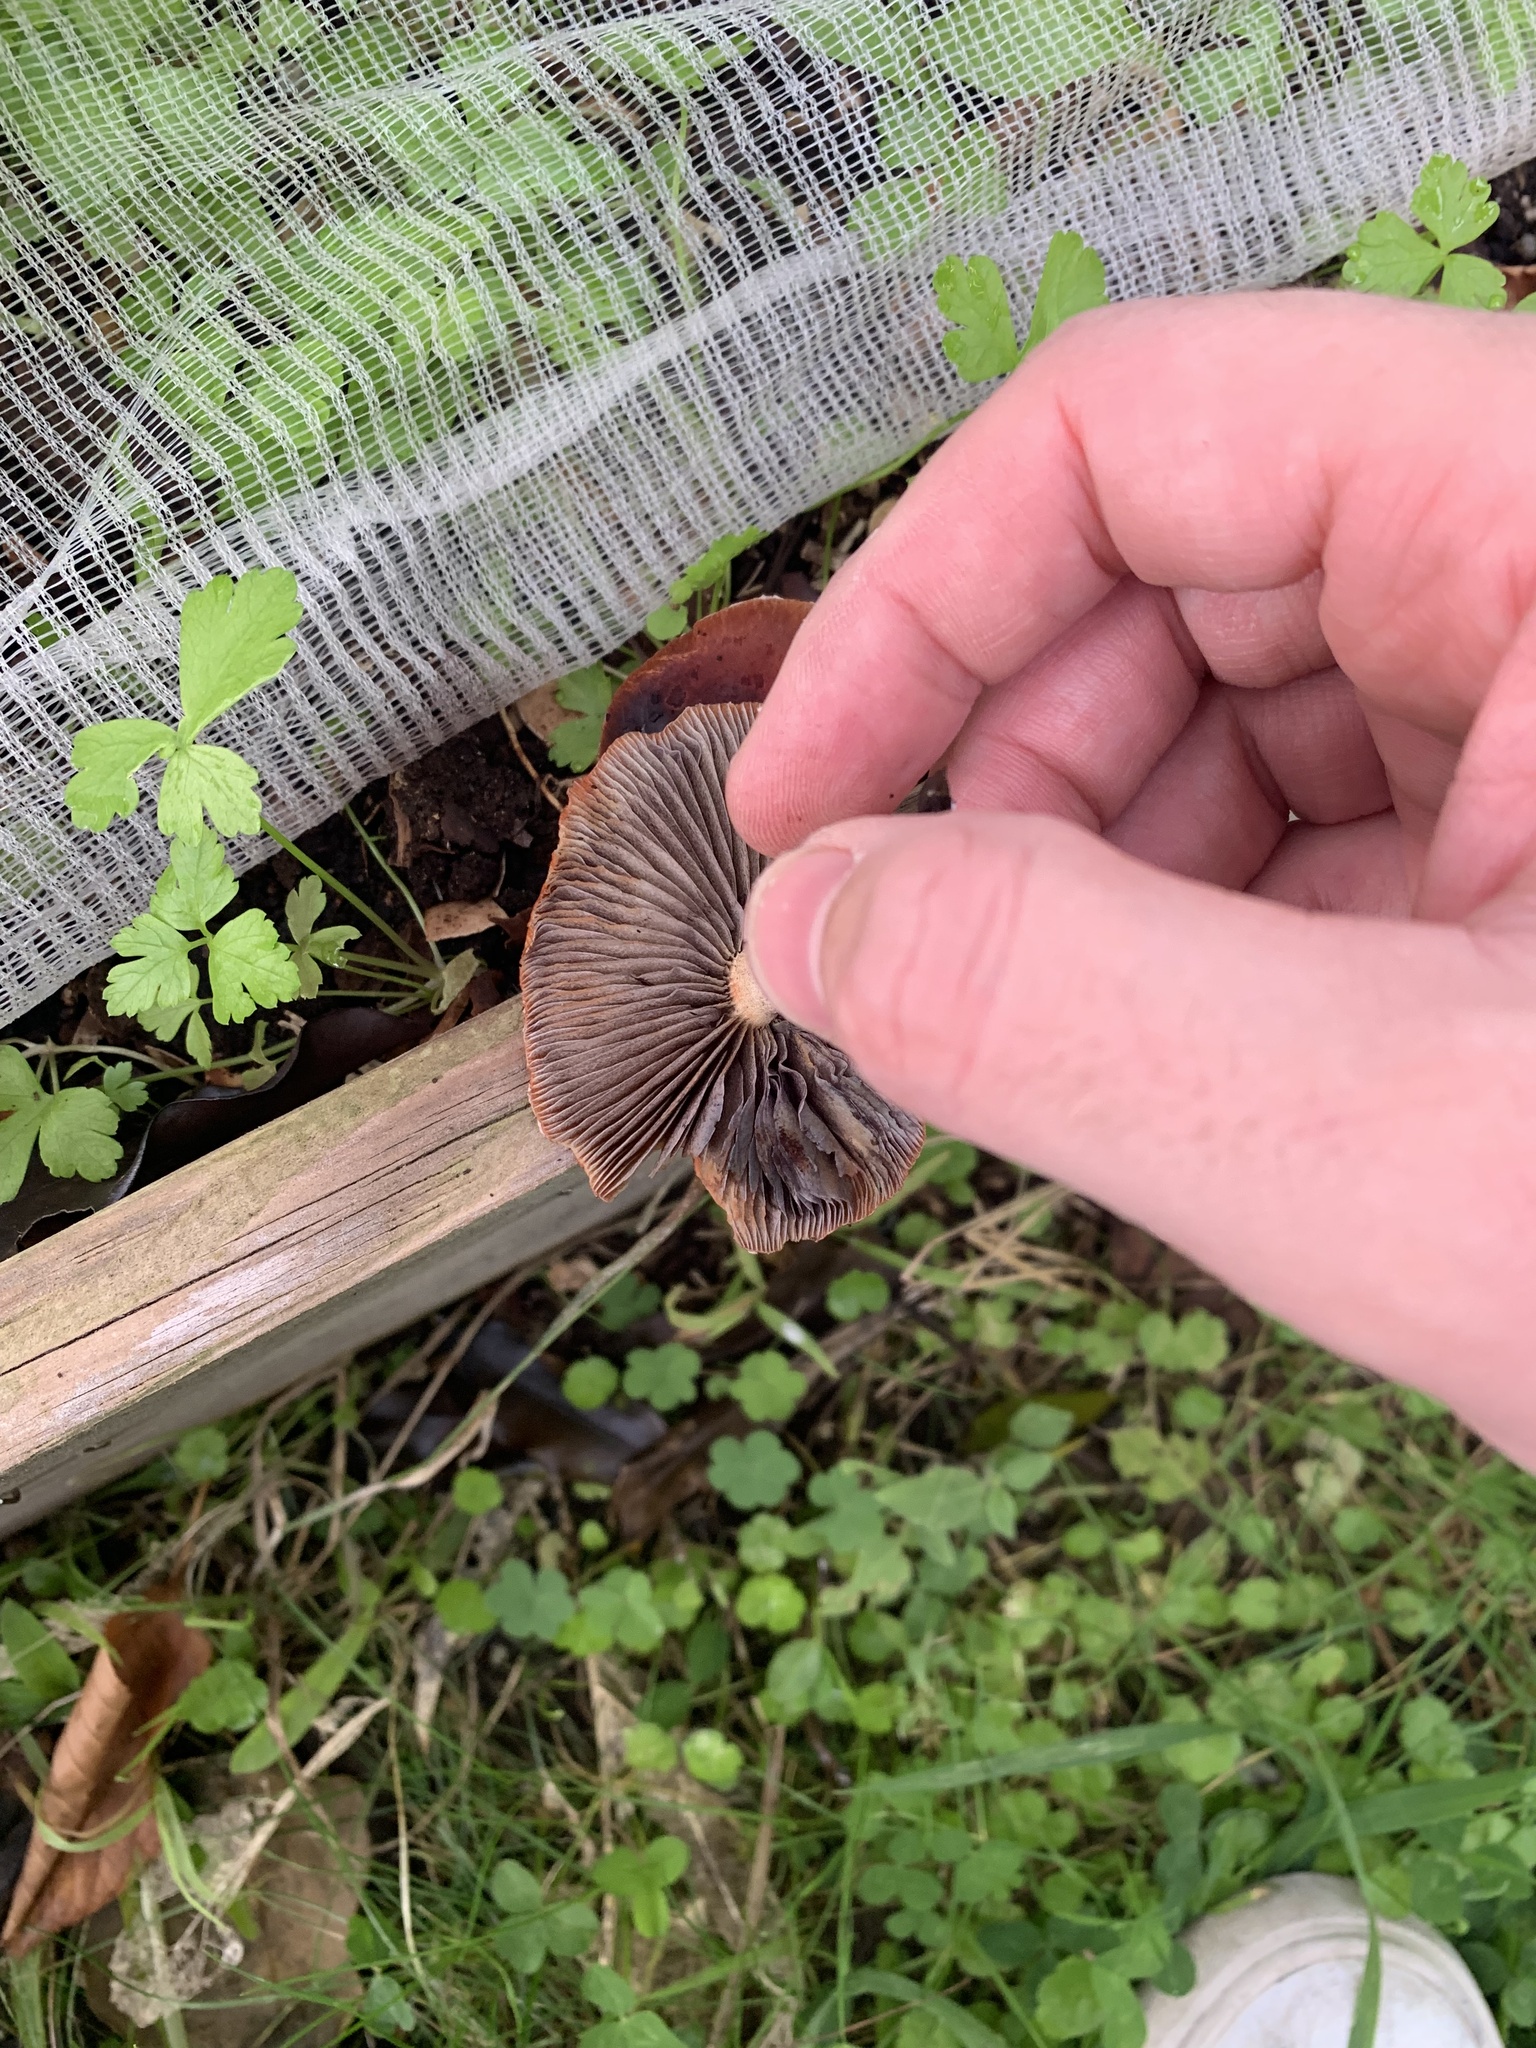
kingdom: Fungi
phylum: Basidiomycota
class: Agaricomycetes
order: Agaricales
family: Strophariaceae
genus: Leratiomyces
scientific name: Leratiomyces ceres
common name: Redlead roundhead
